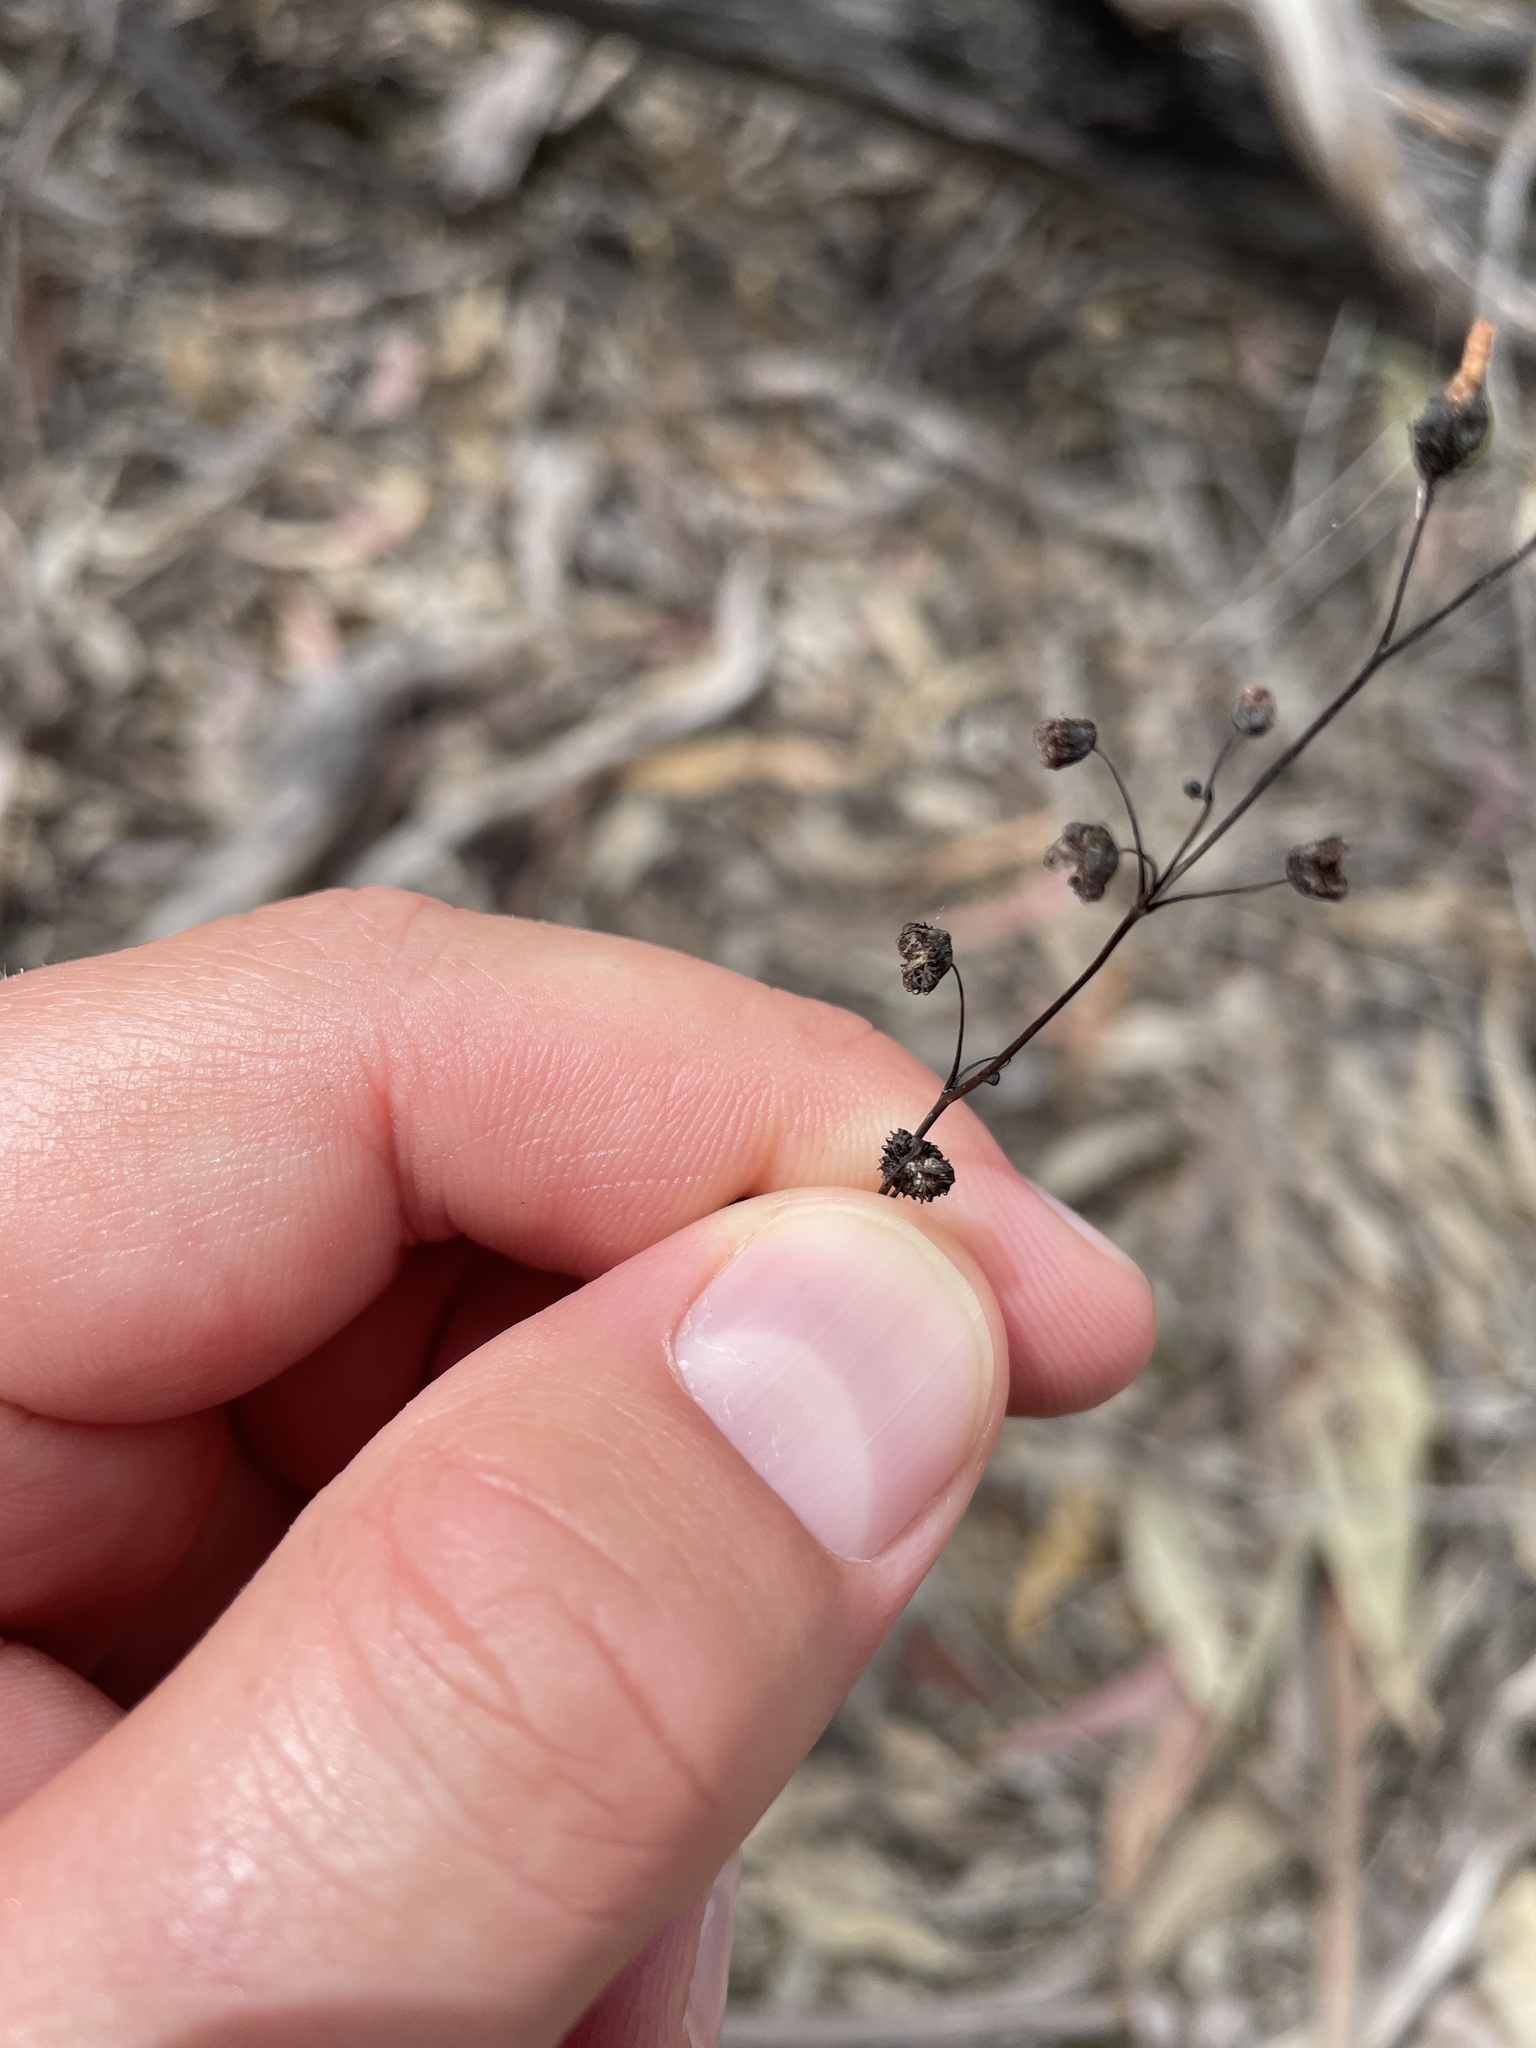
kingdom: Plantae
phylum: Tracheophyta
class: Magnoliopsida
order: Caryophyllales
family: Droseraceae
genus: Drosera
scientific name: Drosera gunniana
